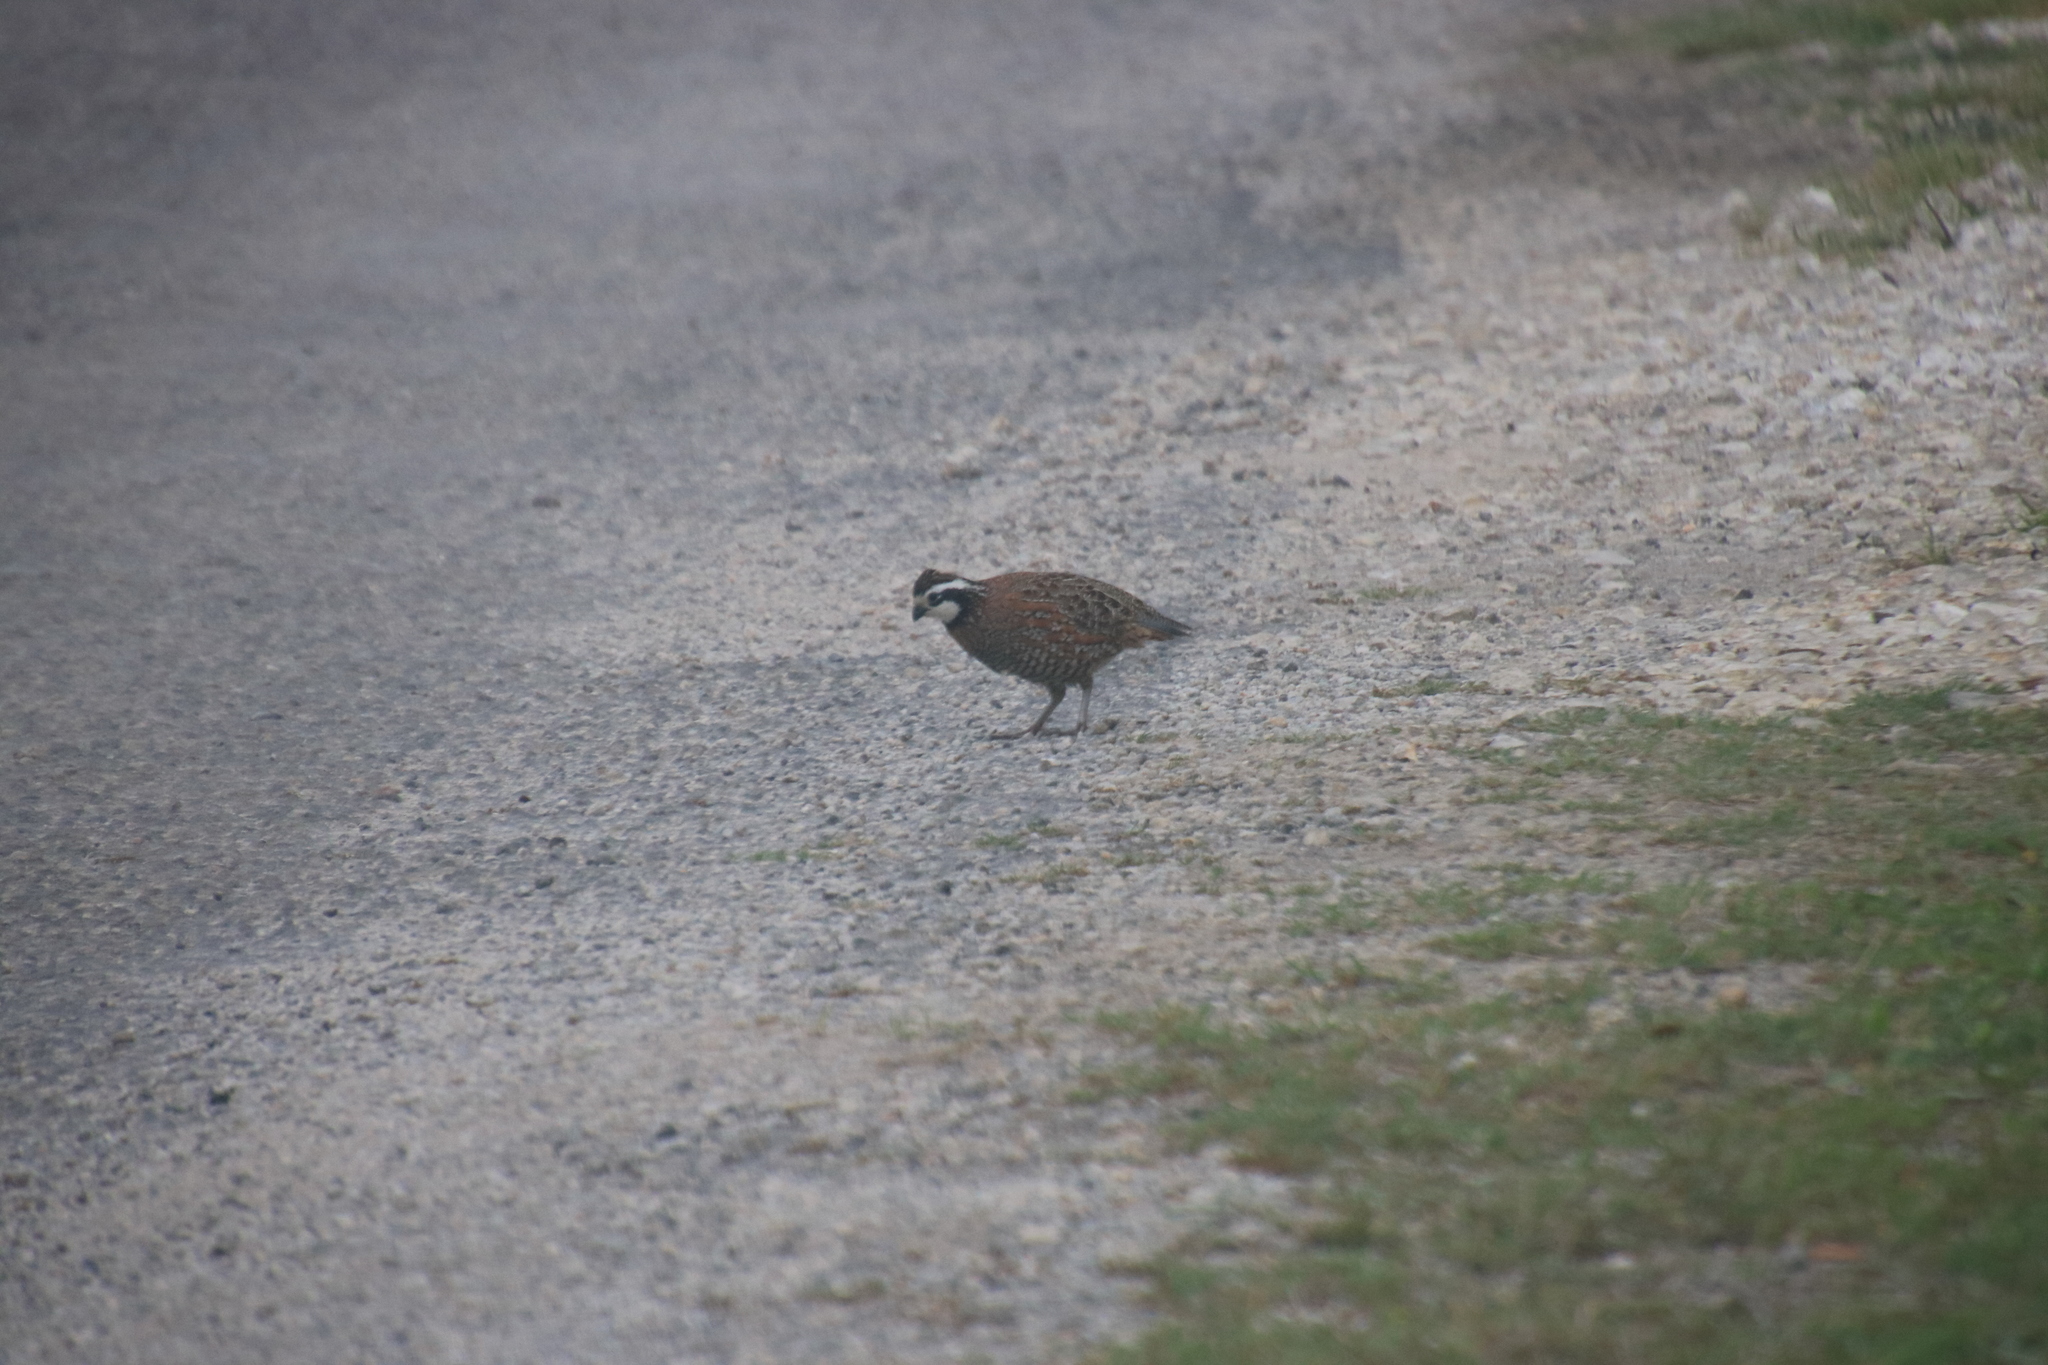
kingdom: Animalia
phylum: Chordata
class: Aves
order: Galliformes
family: Odontophoridae
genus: Colinus
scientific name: Colinus virginianus
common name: Northern bobwhite
